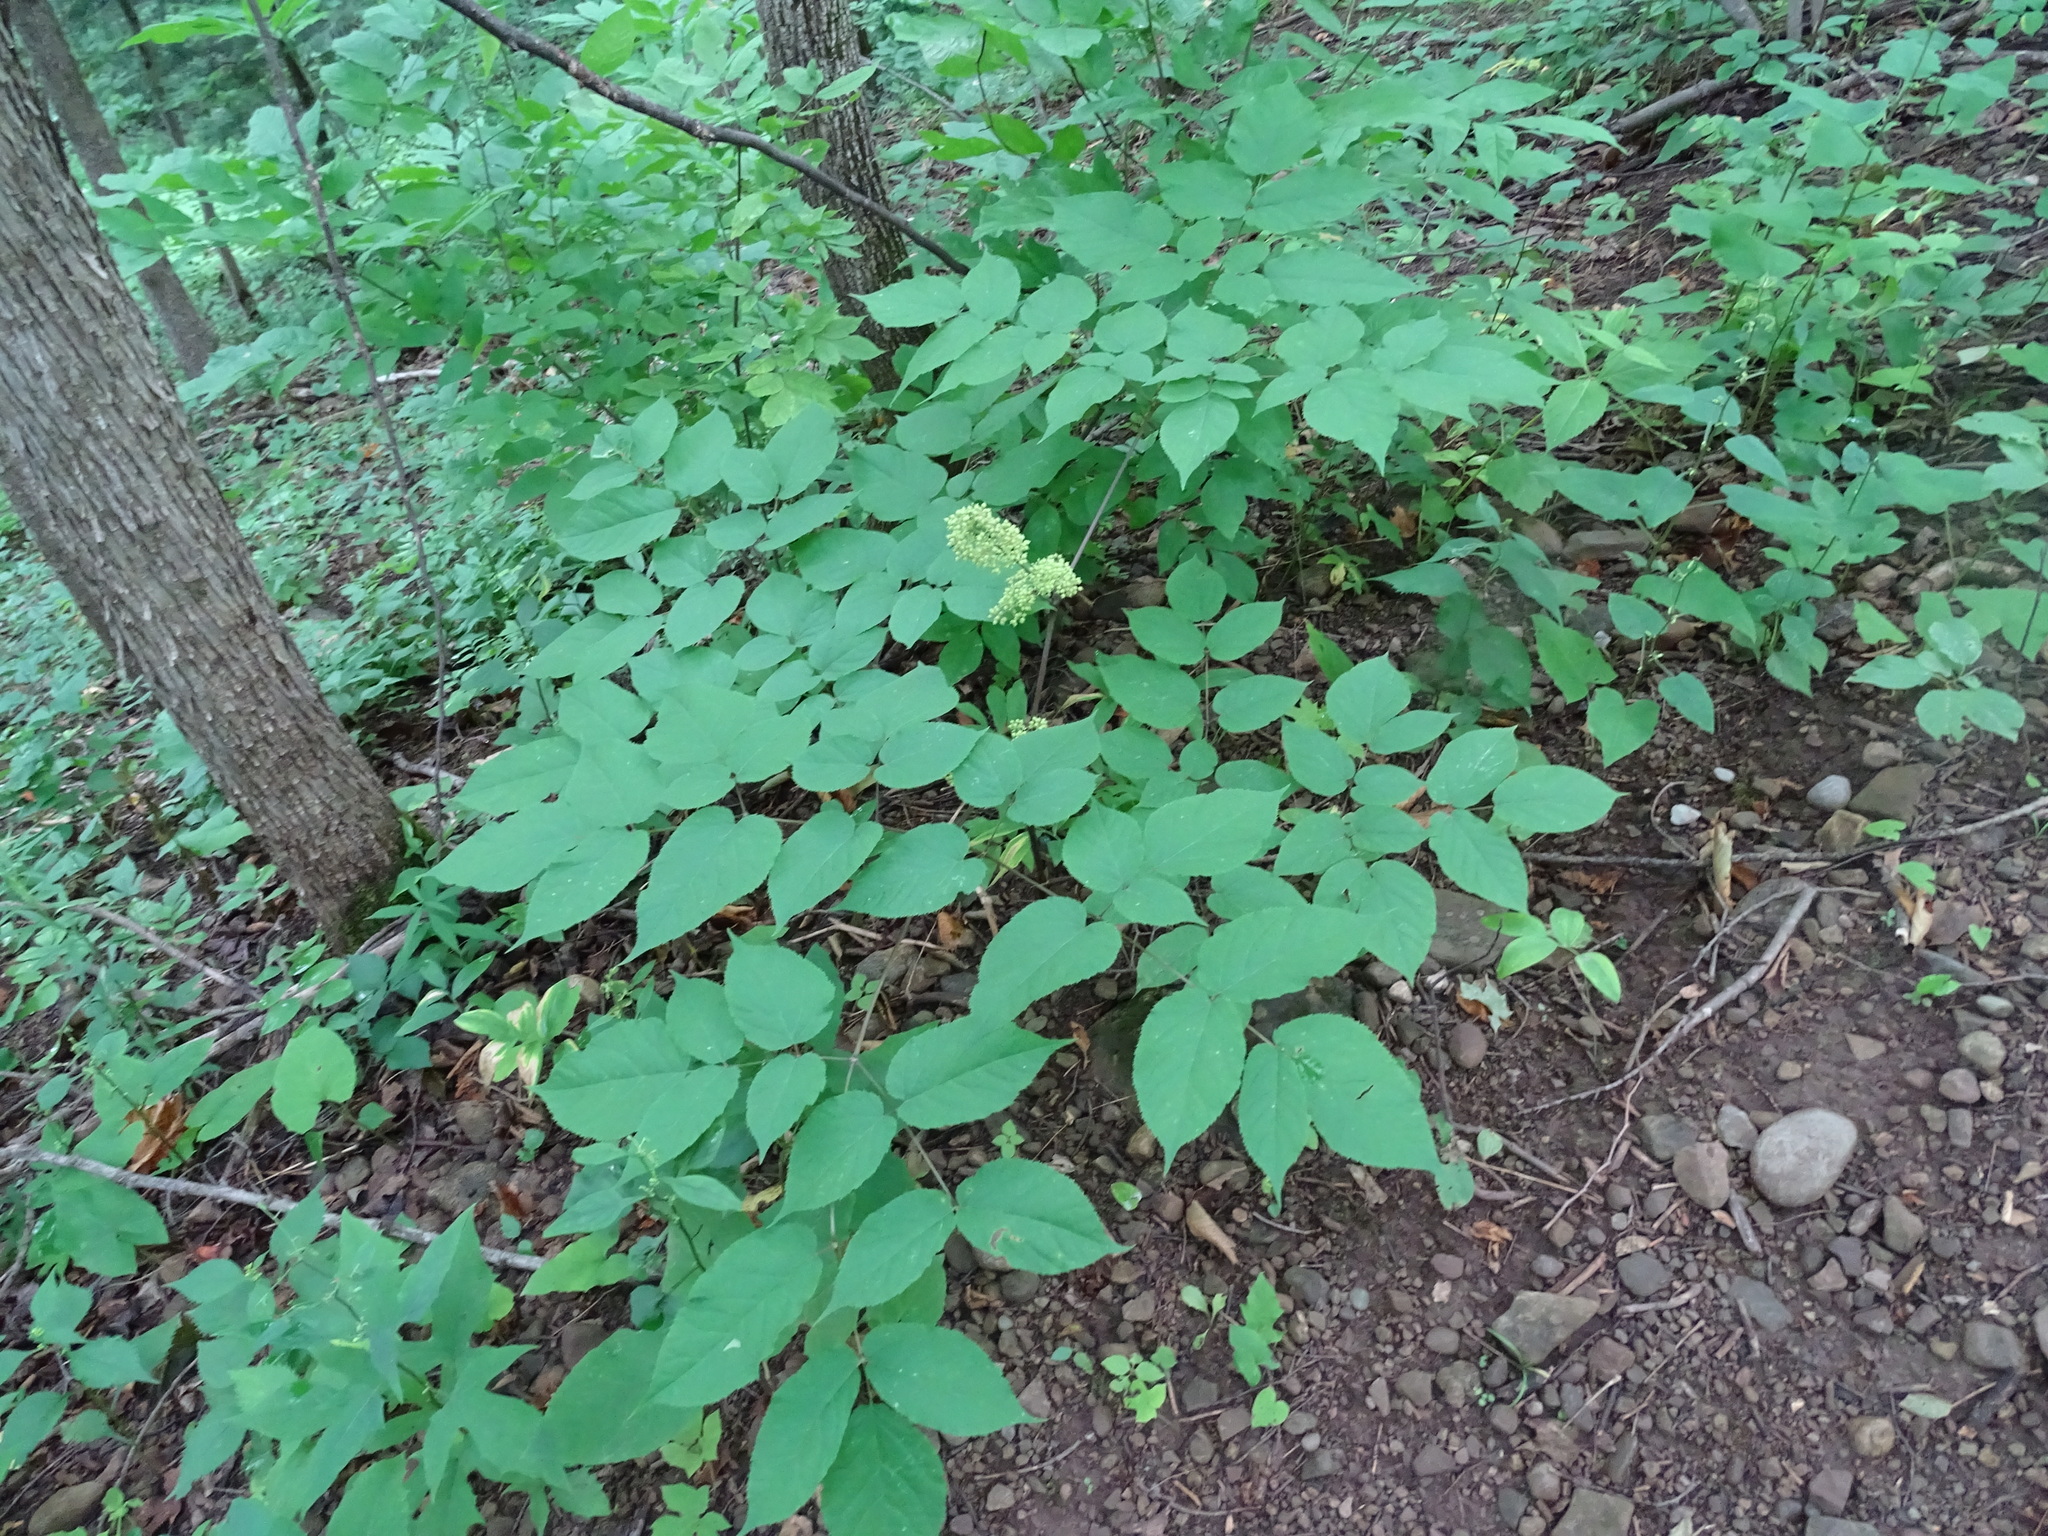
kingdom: Plantae
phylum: Tracheophyta
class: Magnoliopsida
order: Apiales
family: Araliaceae
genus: Aralia
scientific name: Aralia racemosa
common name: American-spikenard
